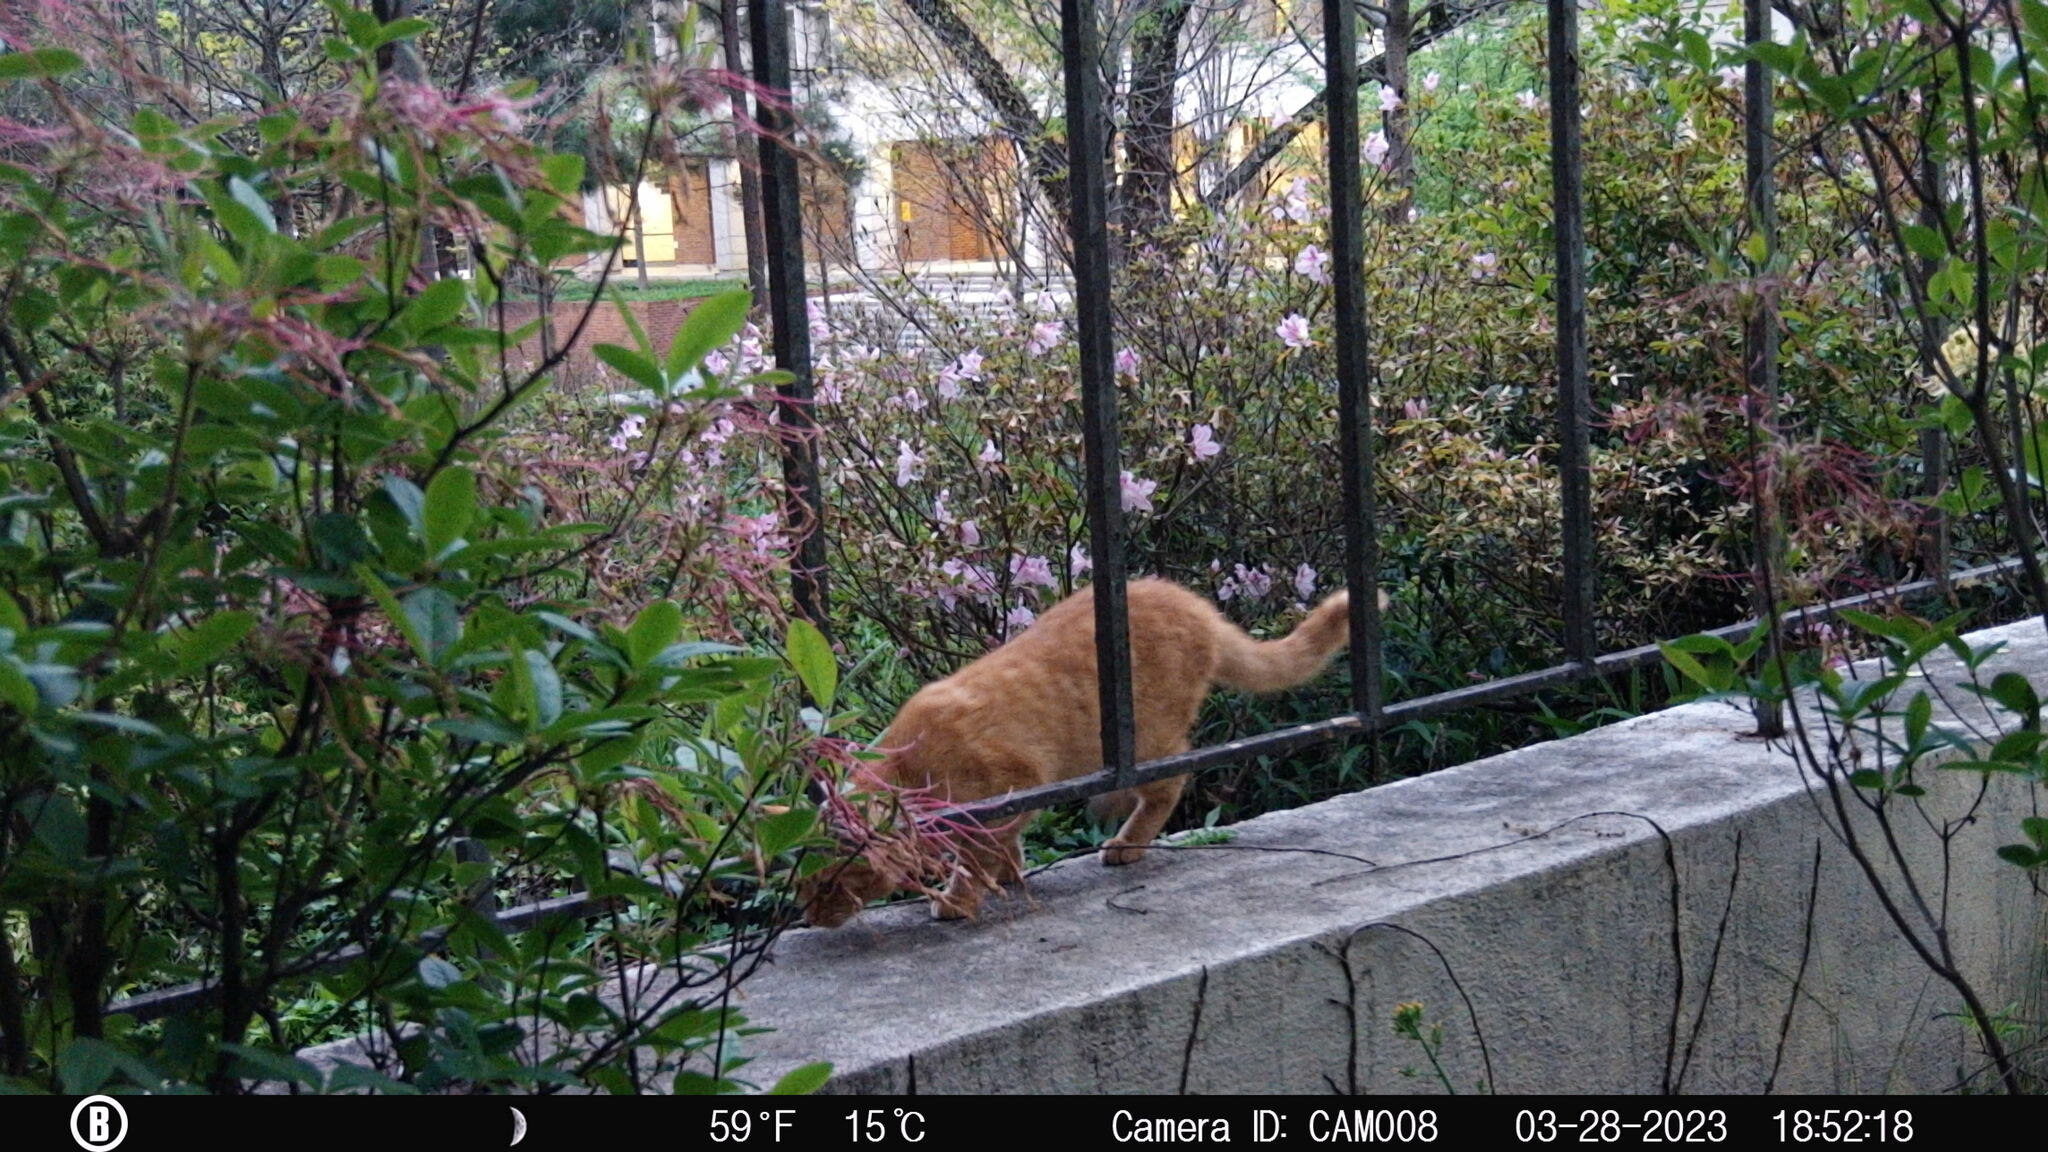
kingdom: Animalia
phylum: Chordata
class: Mammalia
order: Carnivora
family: Felidae
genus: Felis
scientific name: Felis catus
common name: Domestic cat
